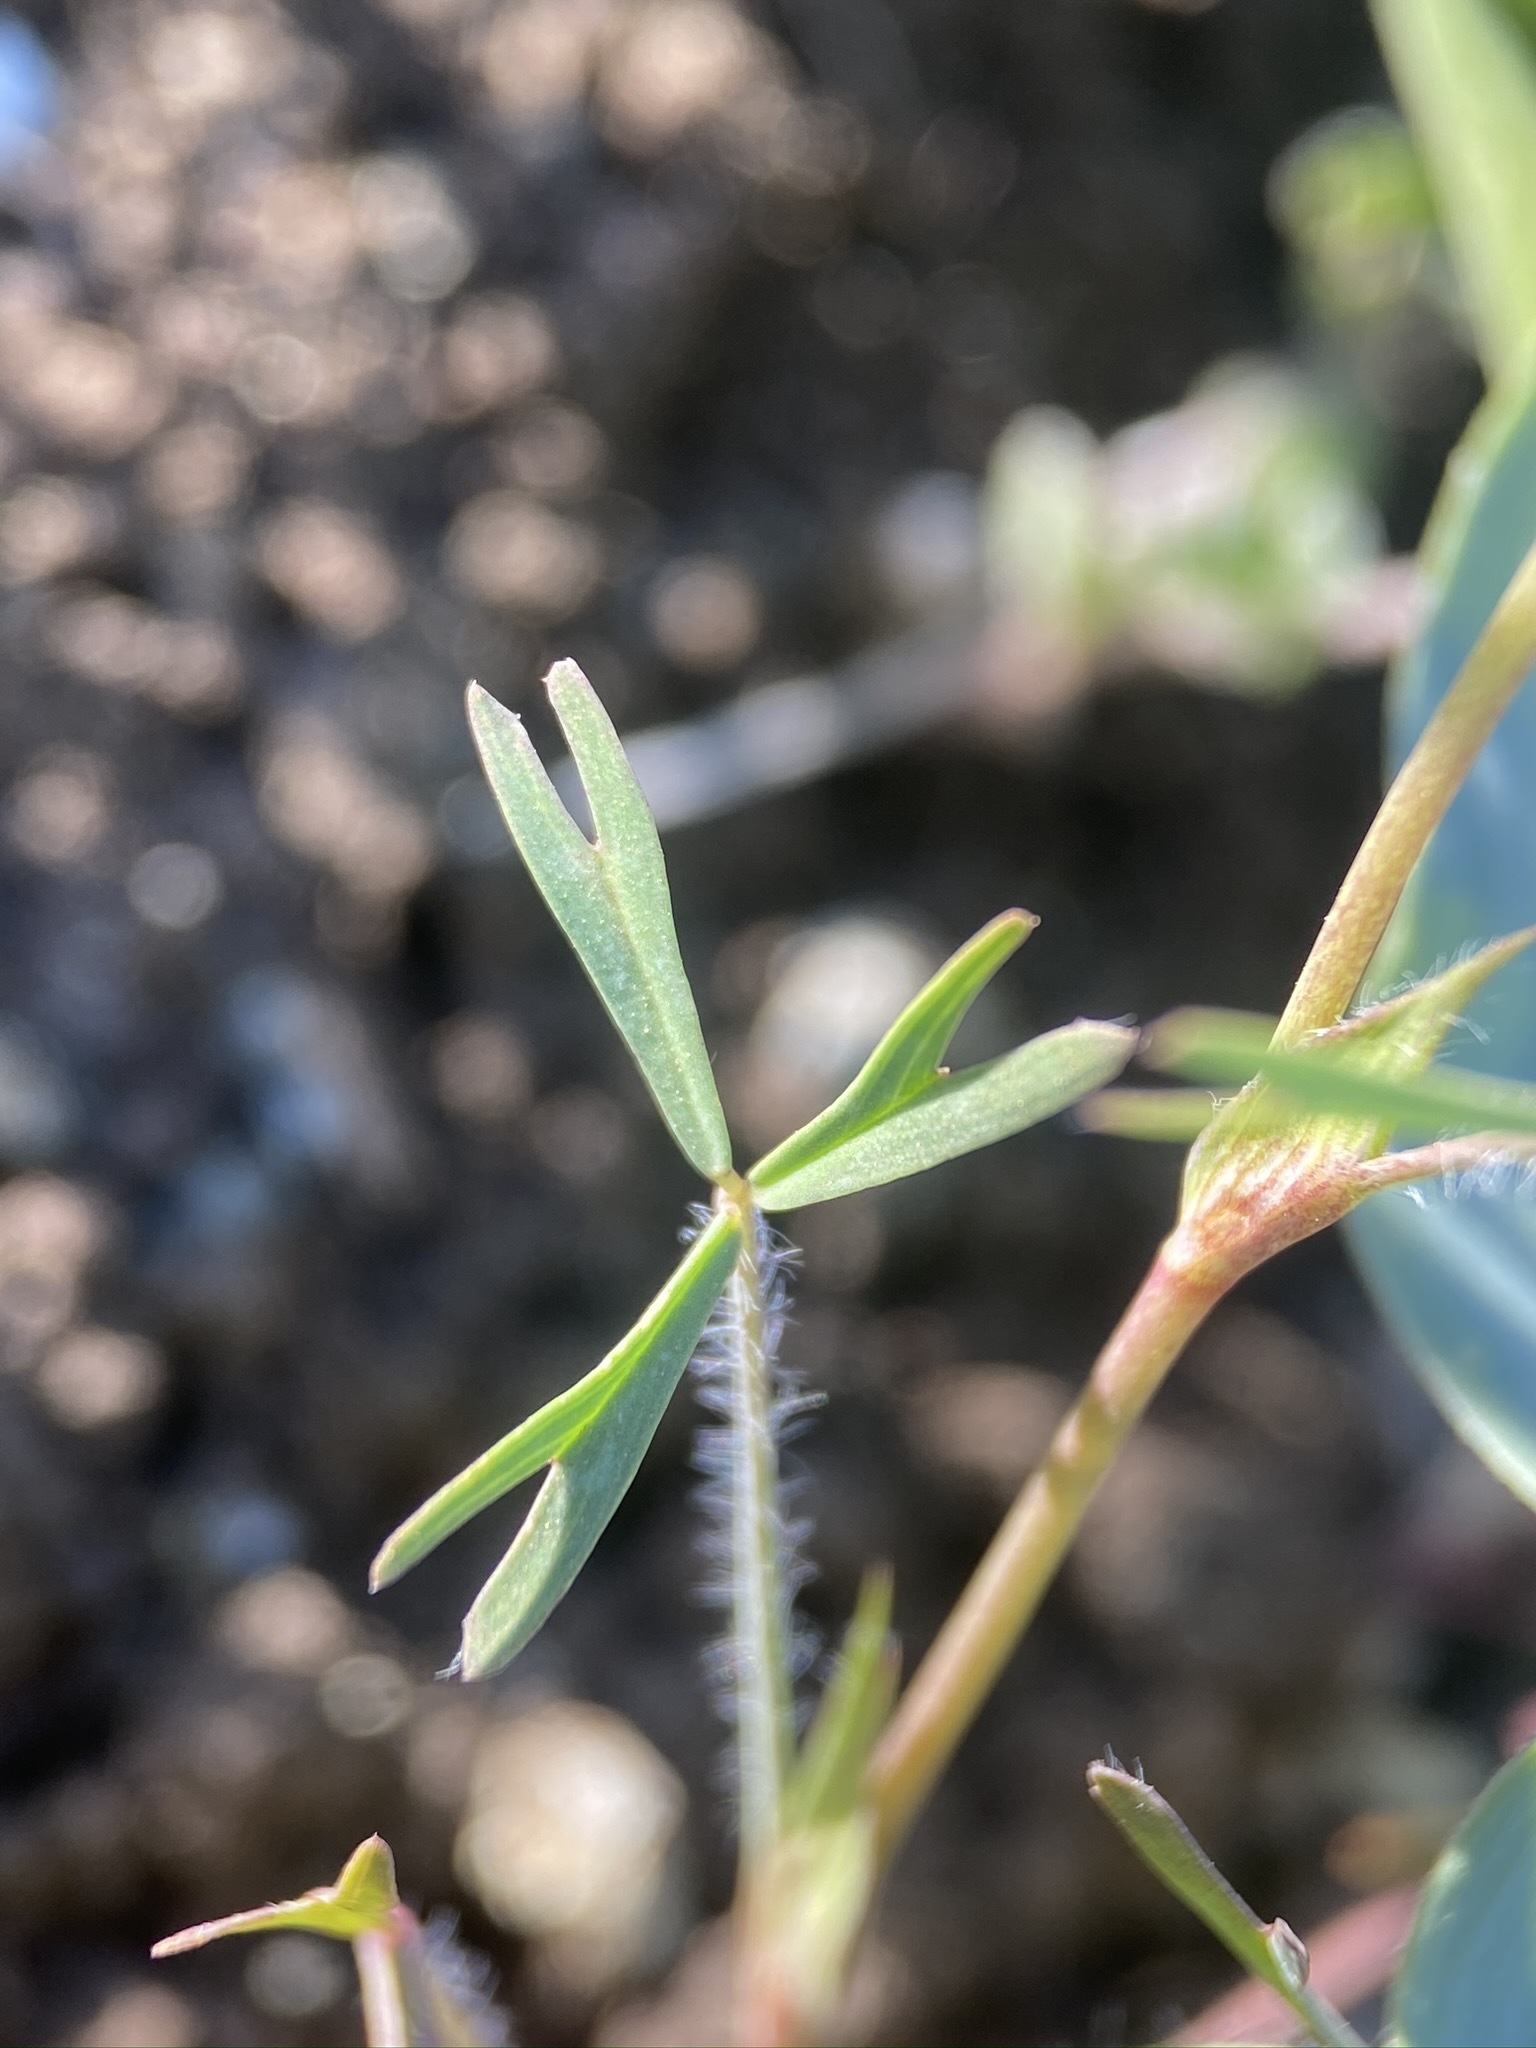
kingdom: Plantae
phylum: Tracheophyta
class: Magnoliopsida
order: Fabales
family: Fabaceae
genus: Trifolium
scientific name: Trifolium bifidum
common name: Notch-leaf clover
